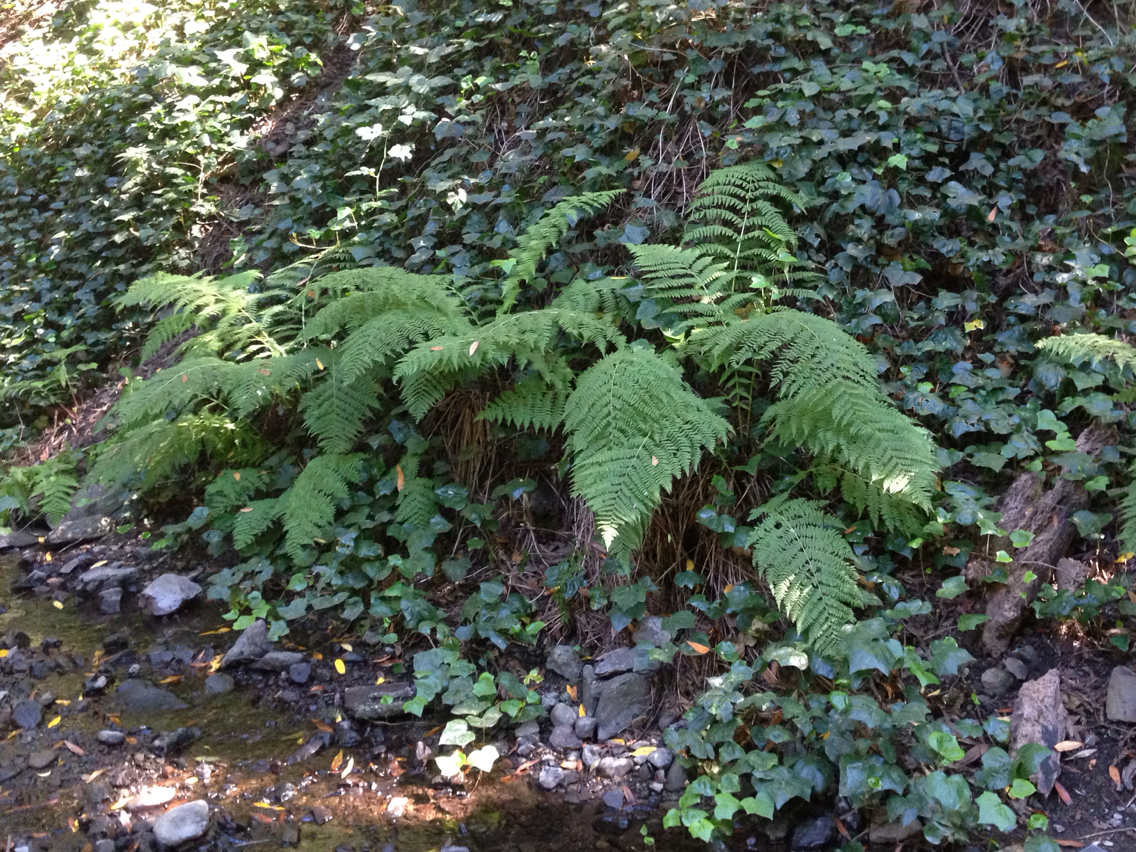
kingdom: Plantae
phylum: Tracheophyta
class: Polypodiopsida
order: Polypodiales
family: Athyriaceae
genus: Athyrium
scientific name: Athyrium filix-femina
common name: Lady fern
